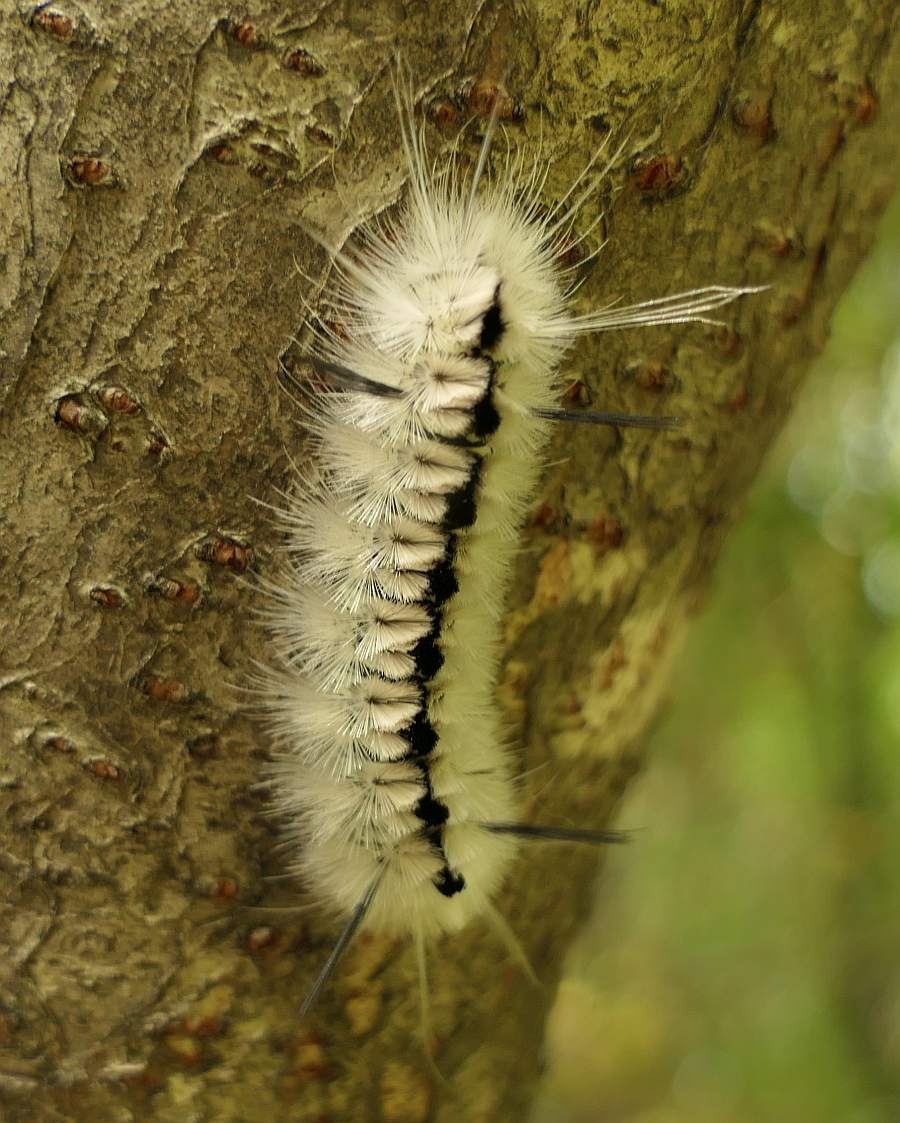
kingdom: Animalia
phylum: Arthropoda
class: Insecta
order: Lepidoptera
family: Erebidae
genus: Lophocampa
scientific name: Lophocampa caryae
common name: Hickory tussock moth
